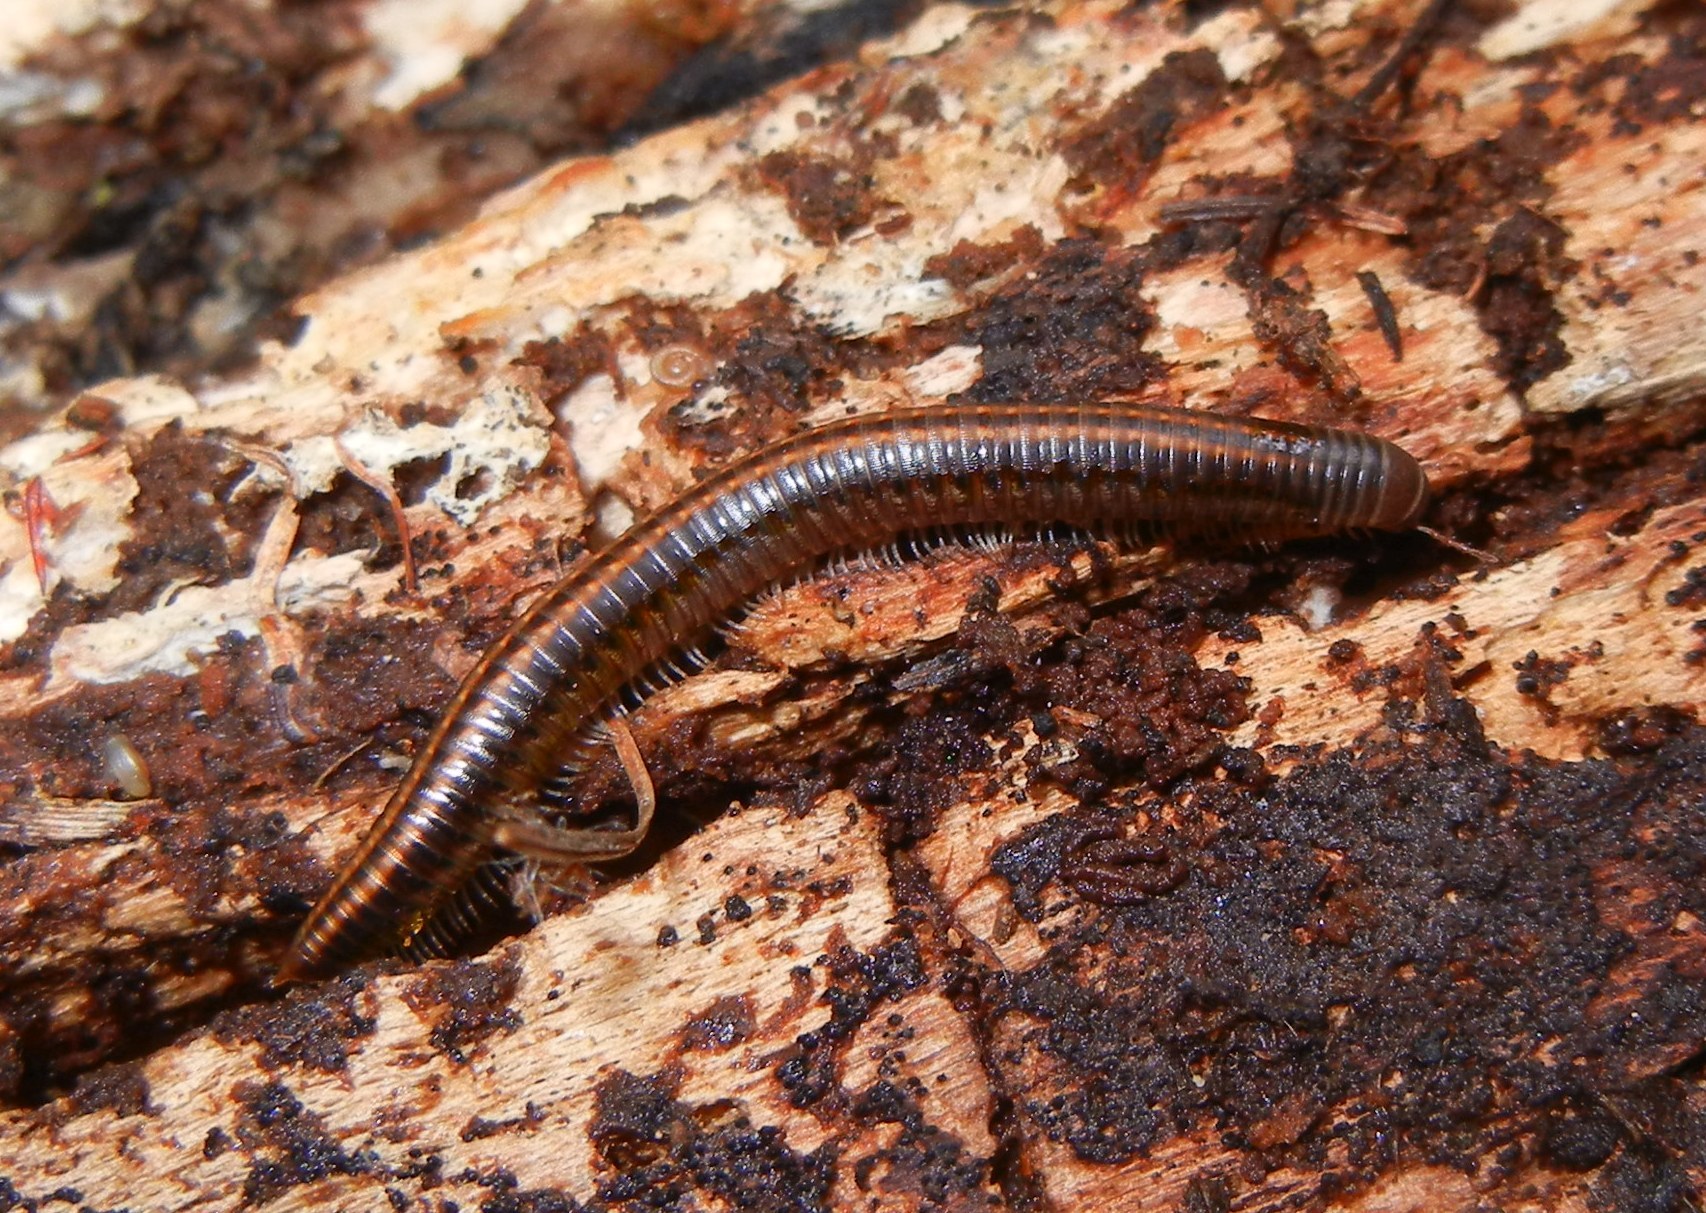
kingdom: Animalia
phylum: Arthropoda
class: Diplopoda
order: Julida
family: Julidae
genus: Ommatoiulus
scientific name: Ommatoiulus sabulosus
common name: Striped millipede
